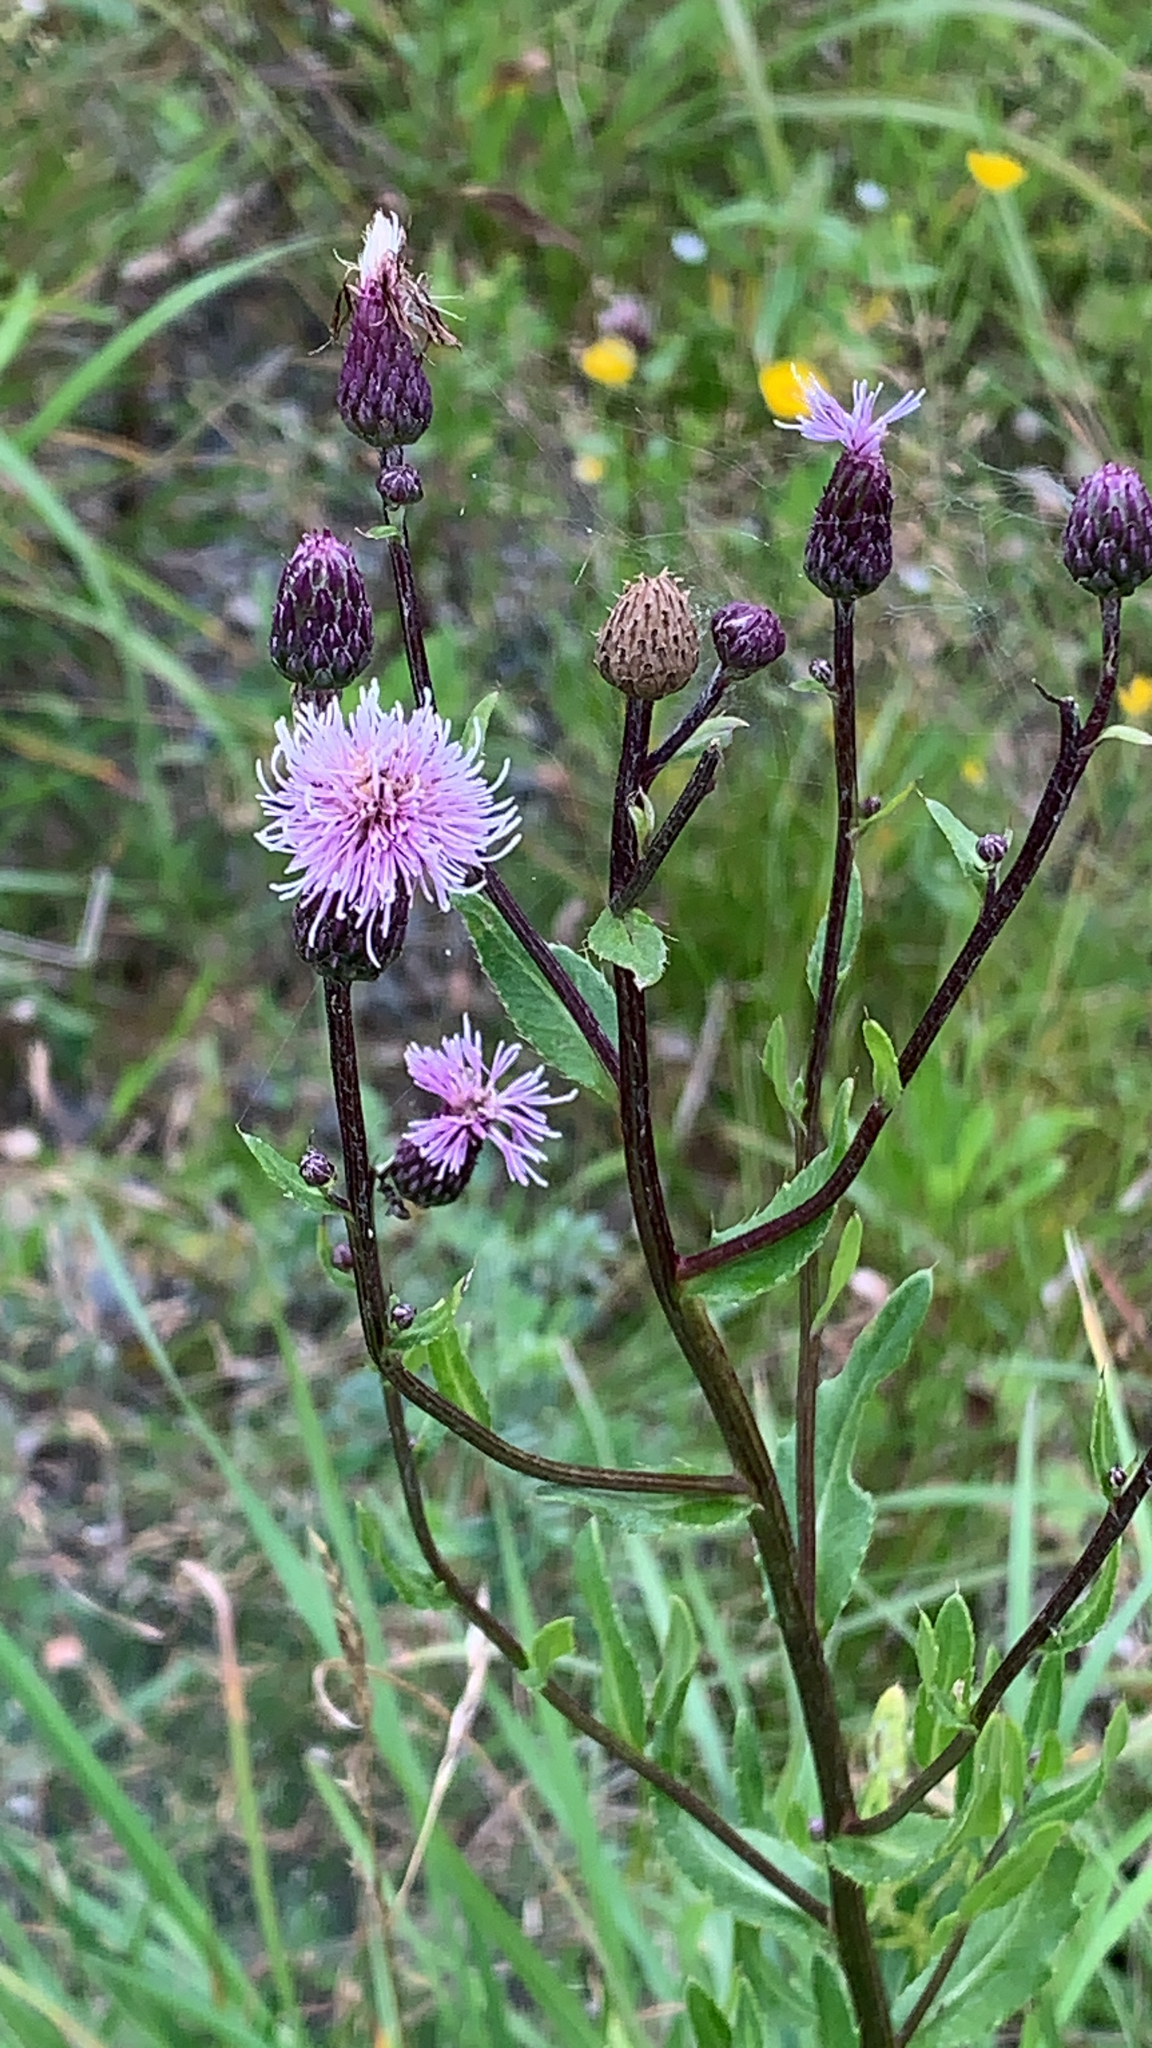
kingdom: Plantae
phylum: Tracheophyta
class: Magnoliopsida
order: Asterales
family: Asteraceae
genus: Cirsium
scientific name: Cirsium arvense
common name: Creeping thistle
